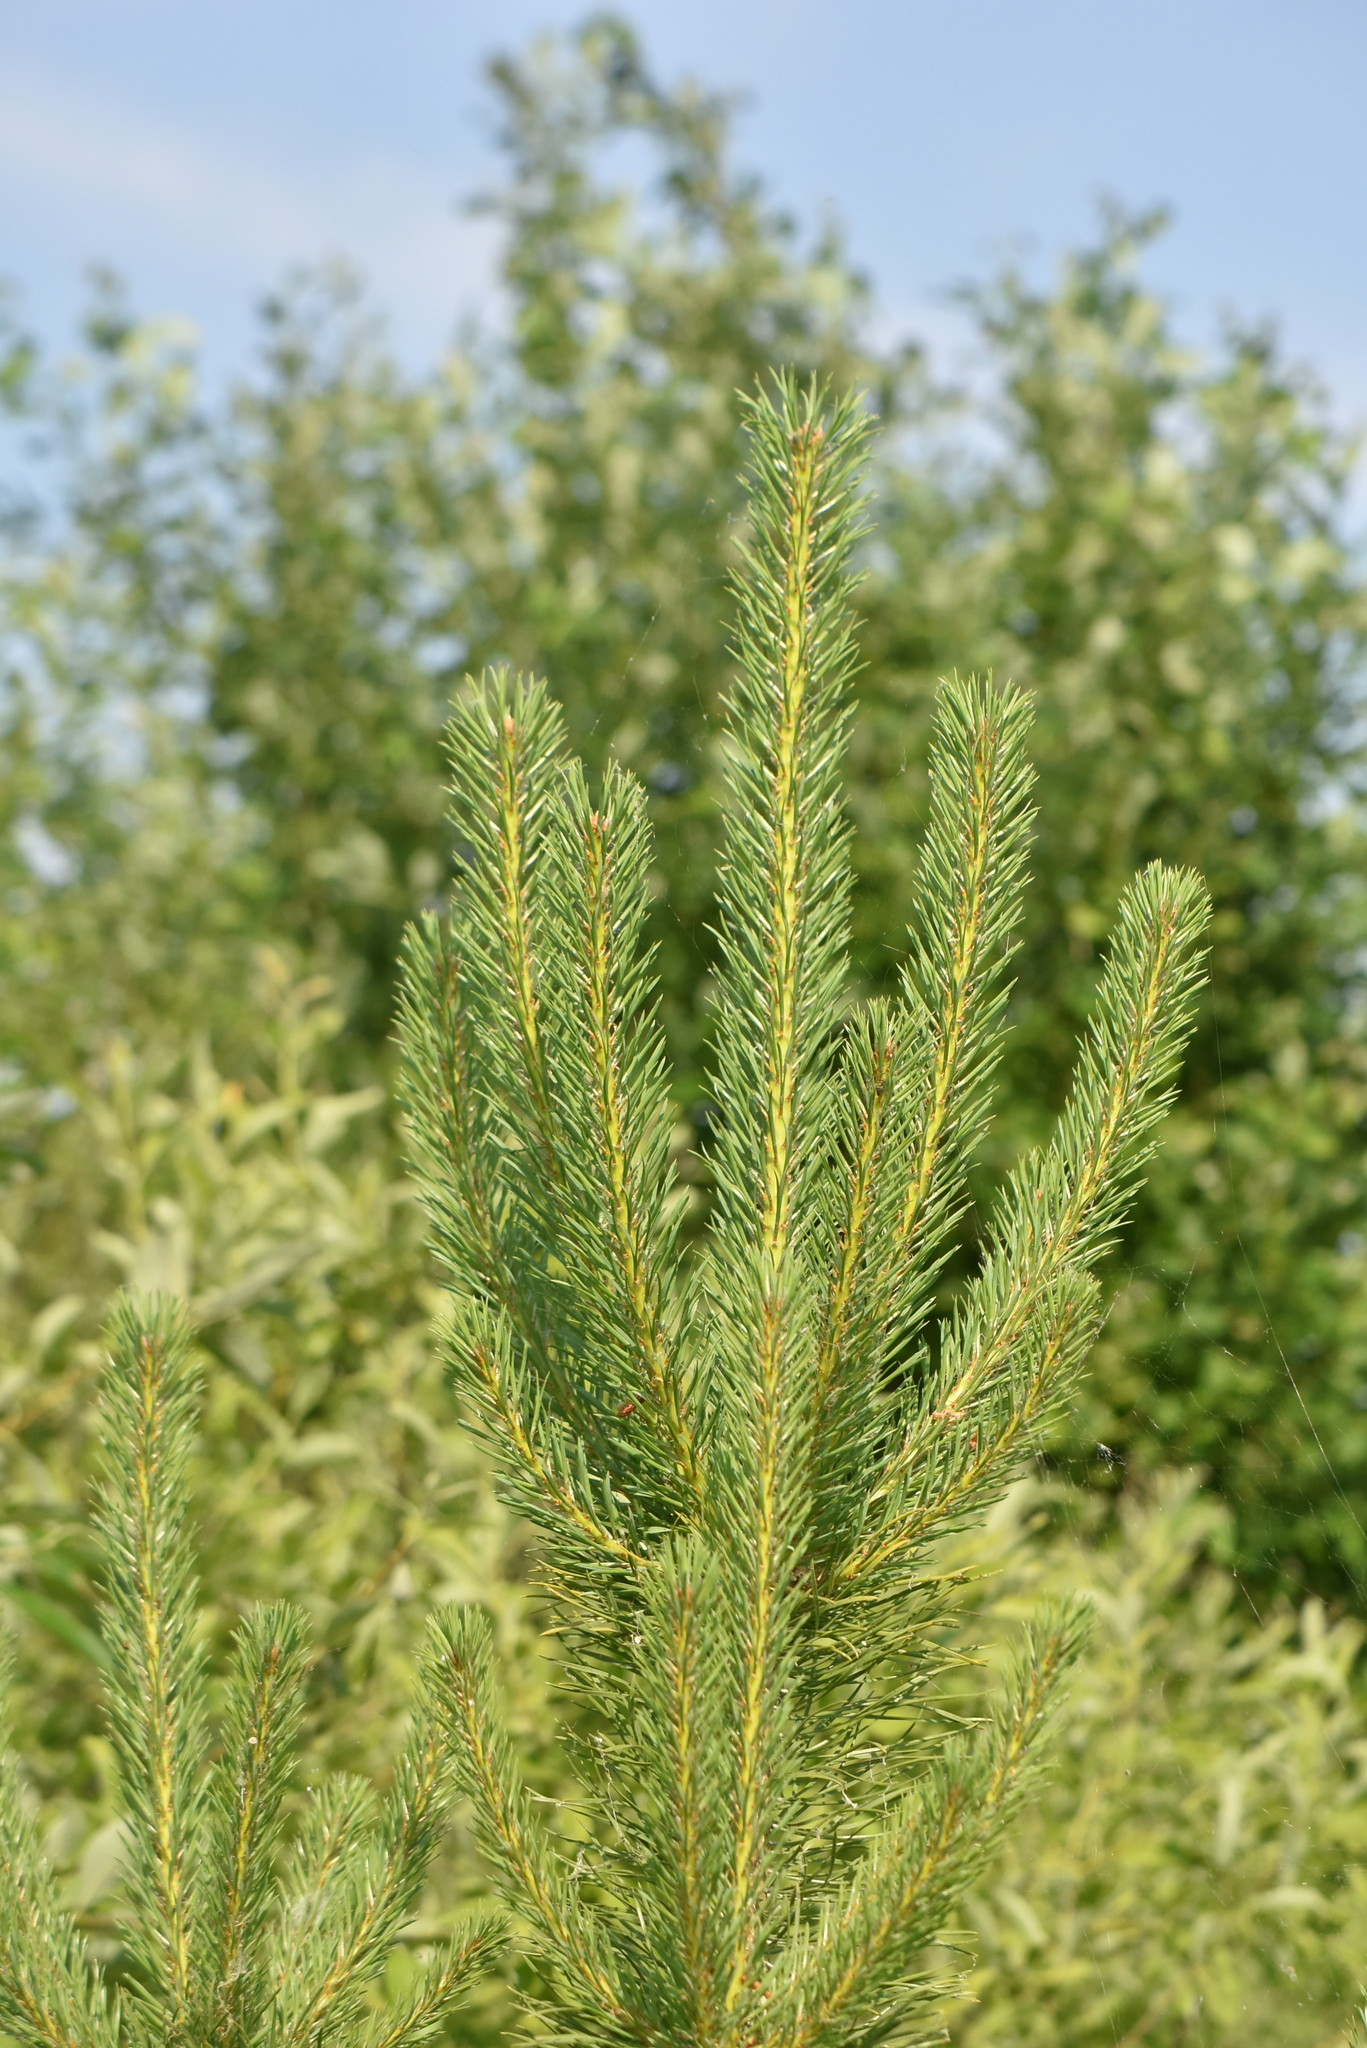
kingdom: Plantae
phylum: Tracheophyta
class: Pinopsida
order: Pinales
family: Pinaceae
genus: Pinus
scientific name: Pinus sylvestris
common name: Scots pine
